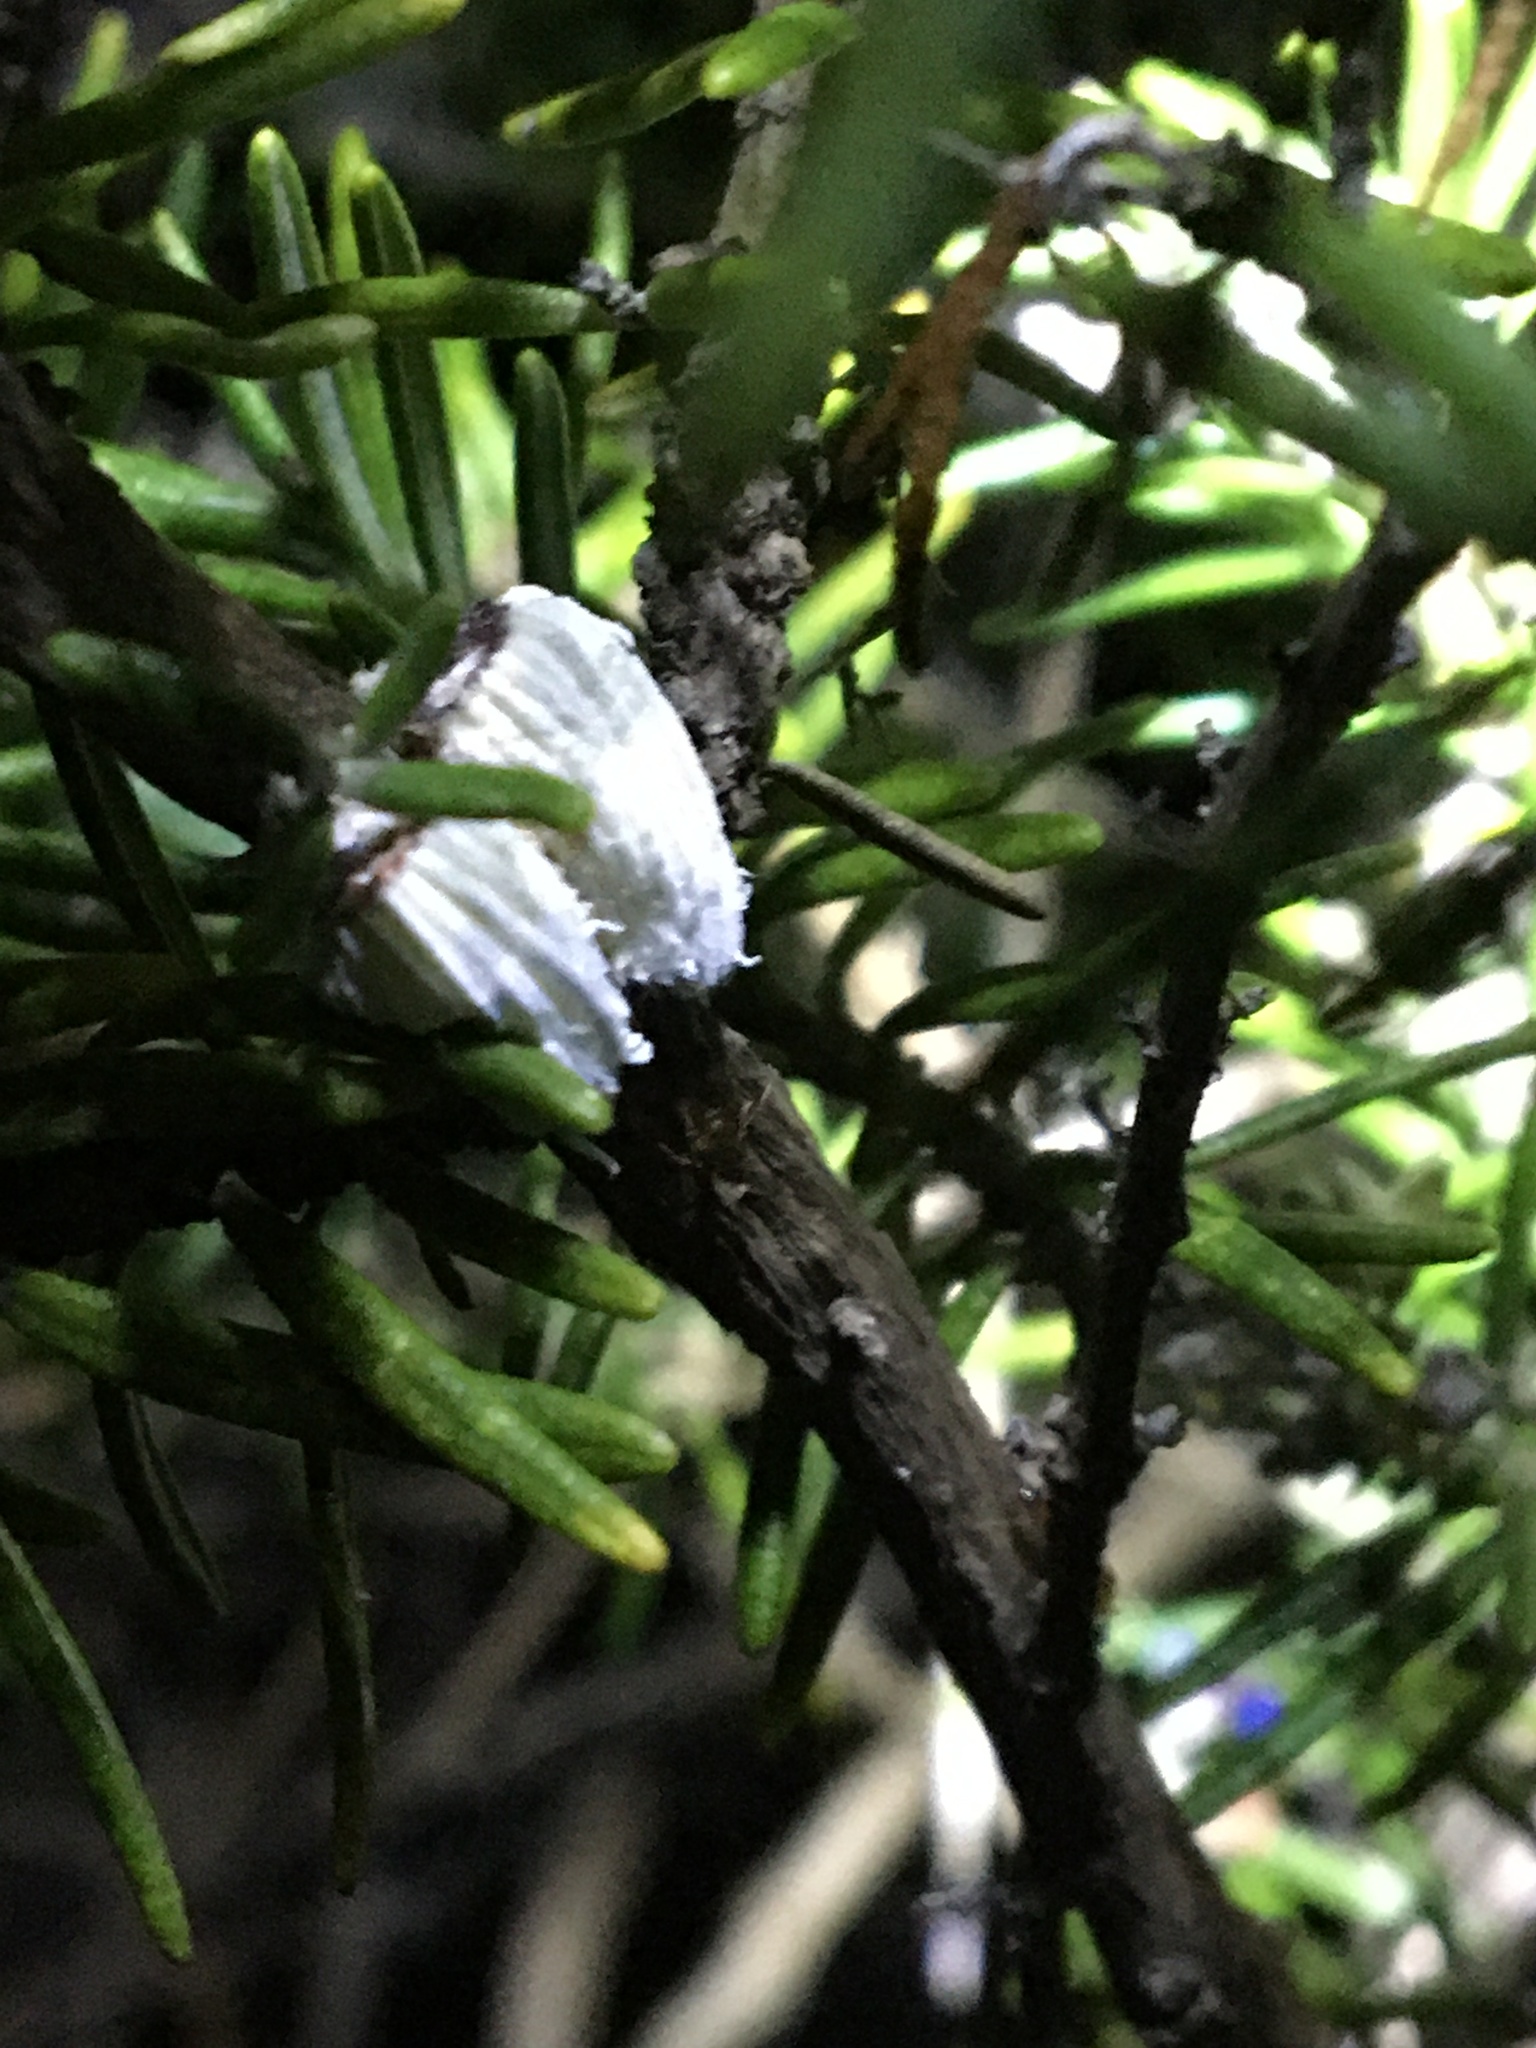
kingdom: Animalia
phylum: Arthropoda
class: Insecta
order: Hemiptera
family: Margarodidae
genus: Icerya
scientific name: Icerya purchasi
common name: Cottony cushion scale
